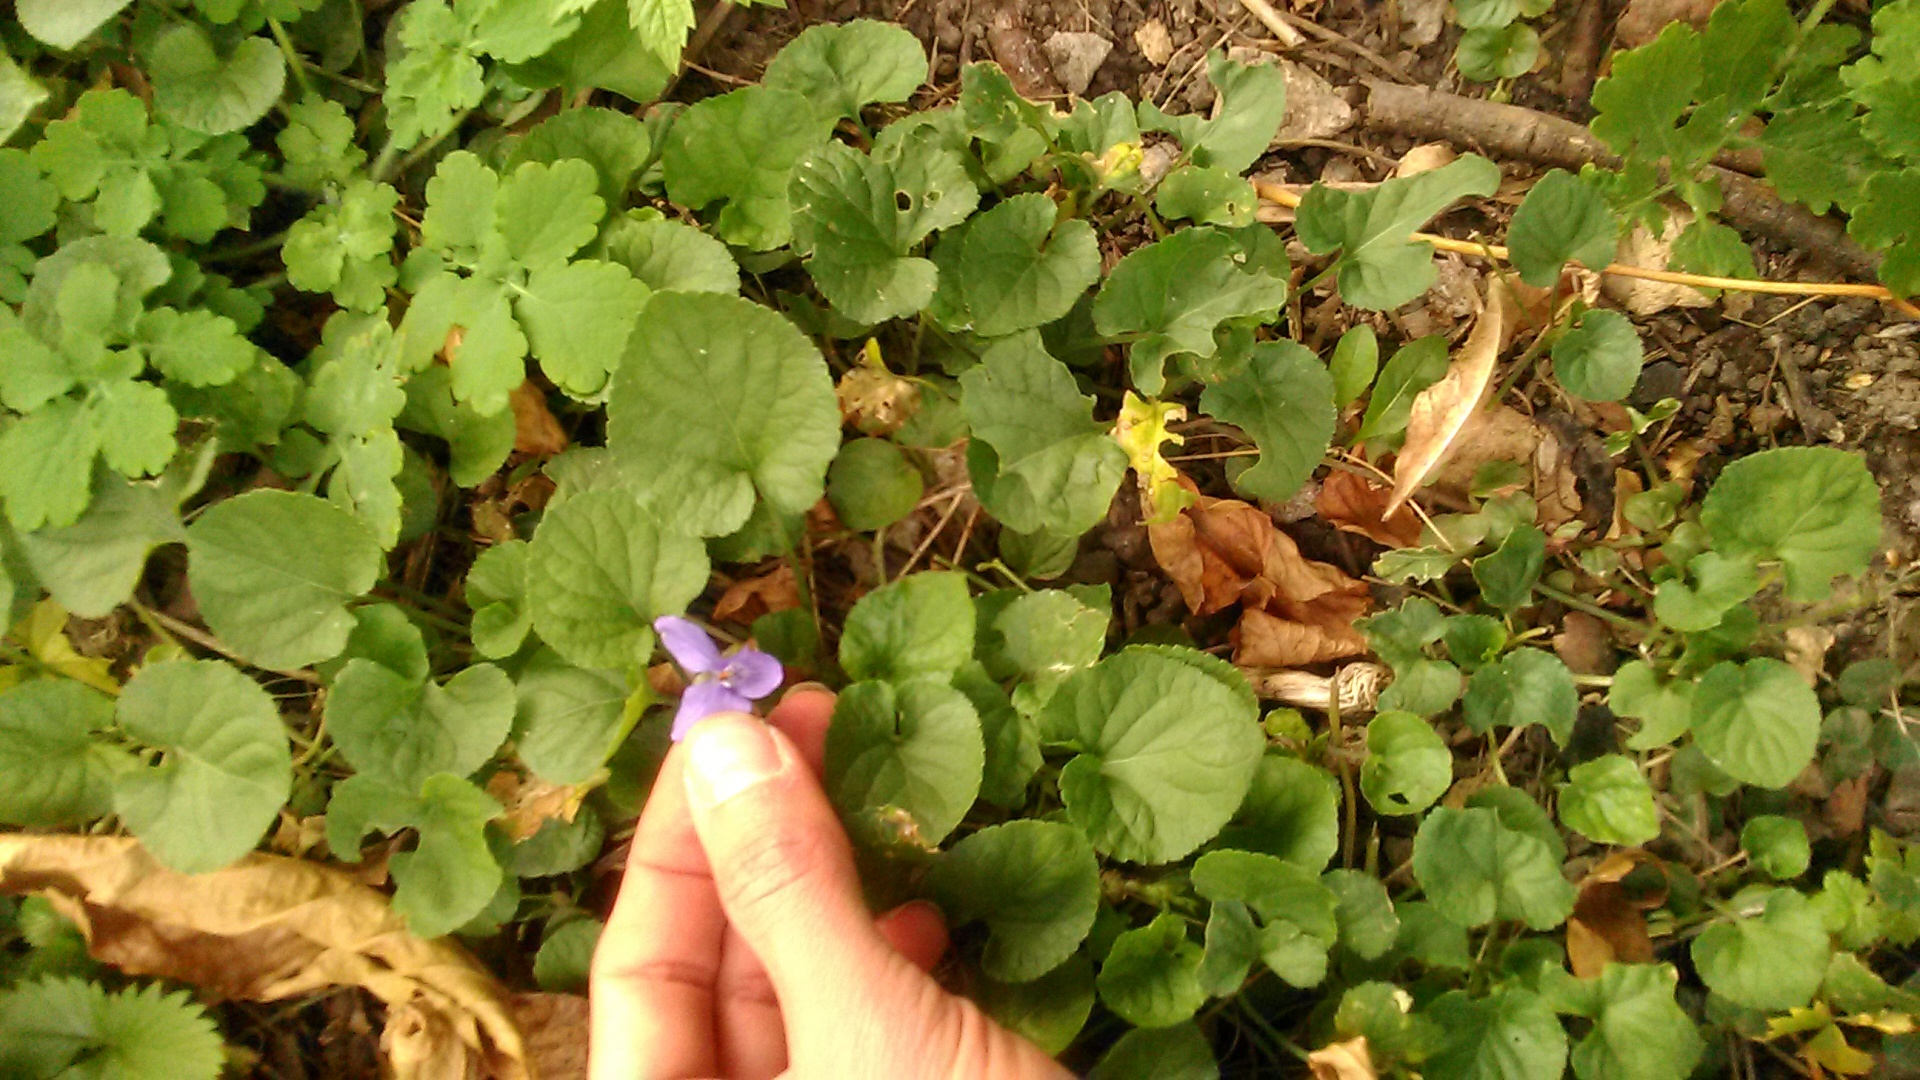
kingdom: Plantae
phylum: Tracheophyta
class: Magnoliopsida
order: Malpighiales
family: Violaceae
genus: Viola
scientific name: Viola odorata
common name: Sweet violet
